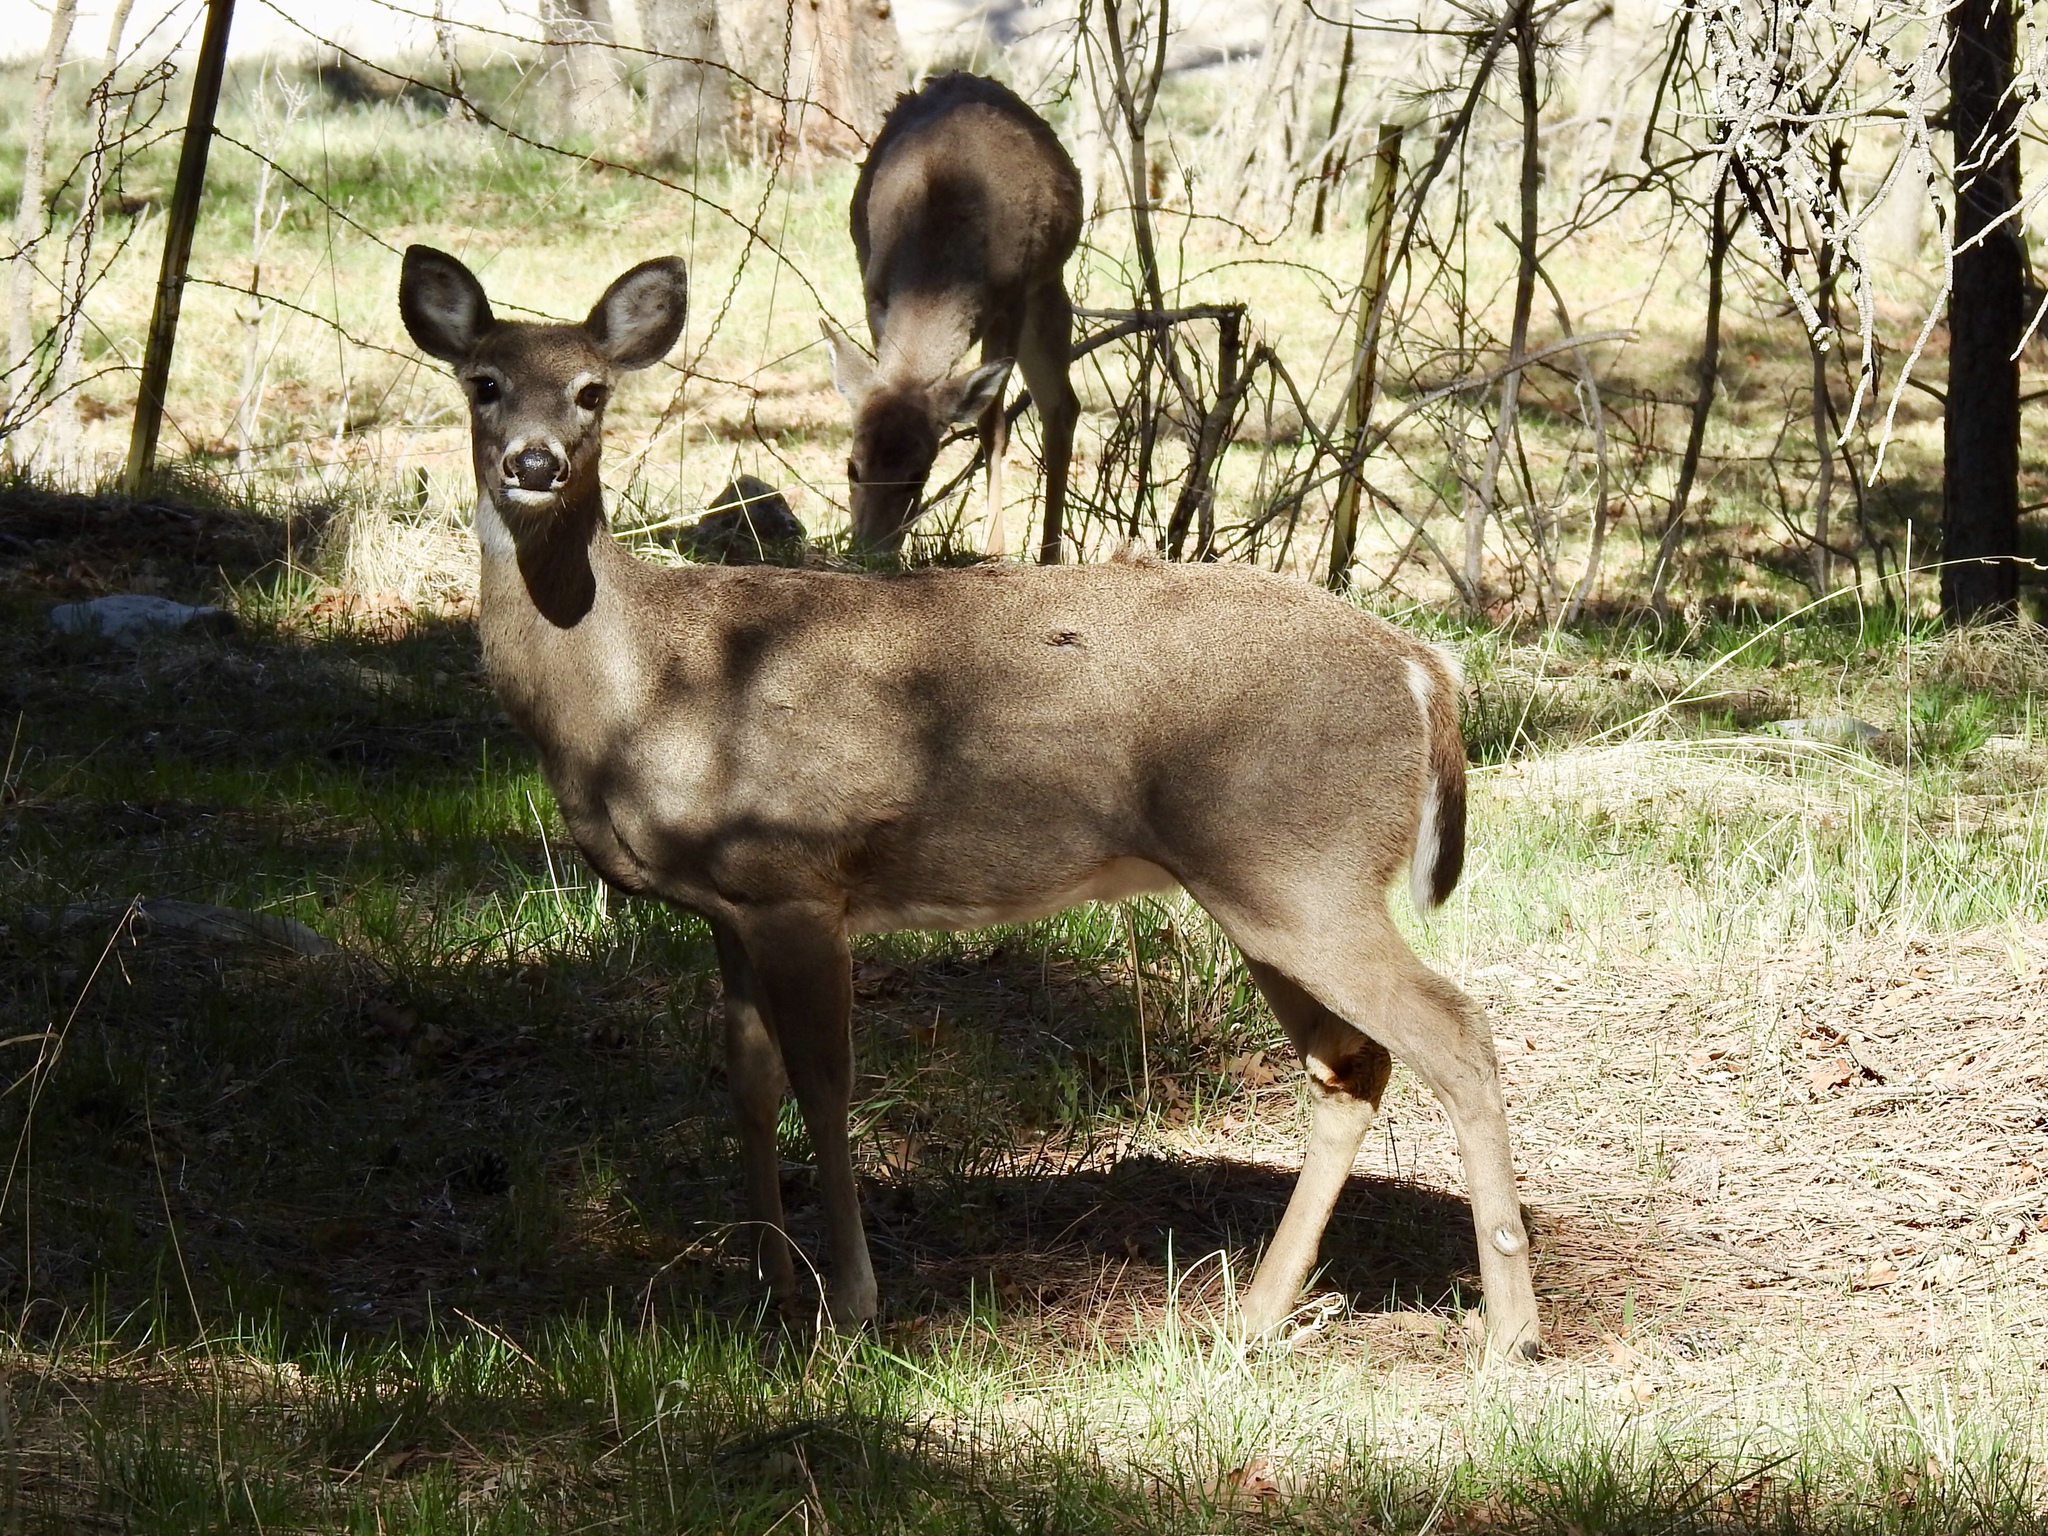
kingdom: Animalia
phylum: Chordata
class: Mammalia
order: Artiodactyla
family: Cervidae
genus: Odocoileus
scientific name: Odocoileus virginianus
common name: White-tailed deer
